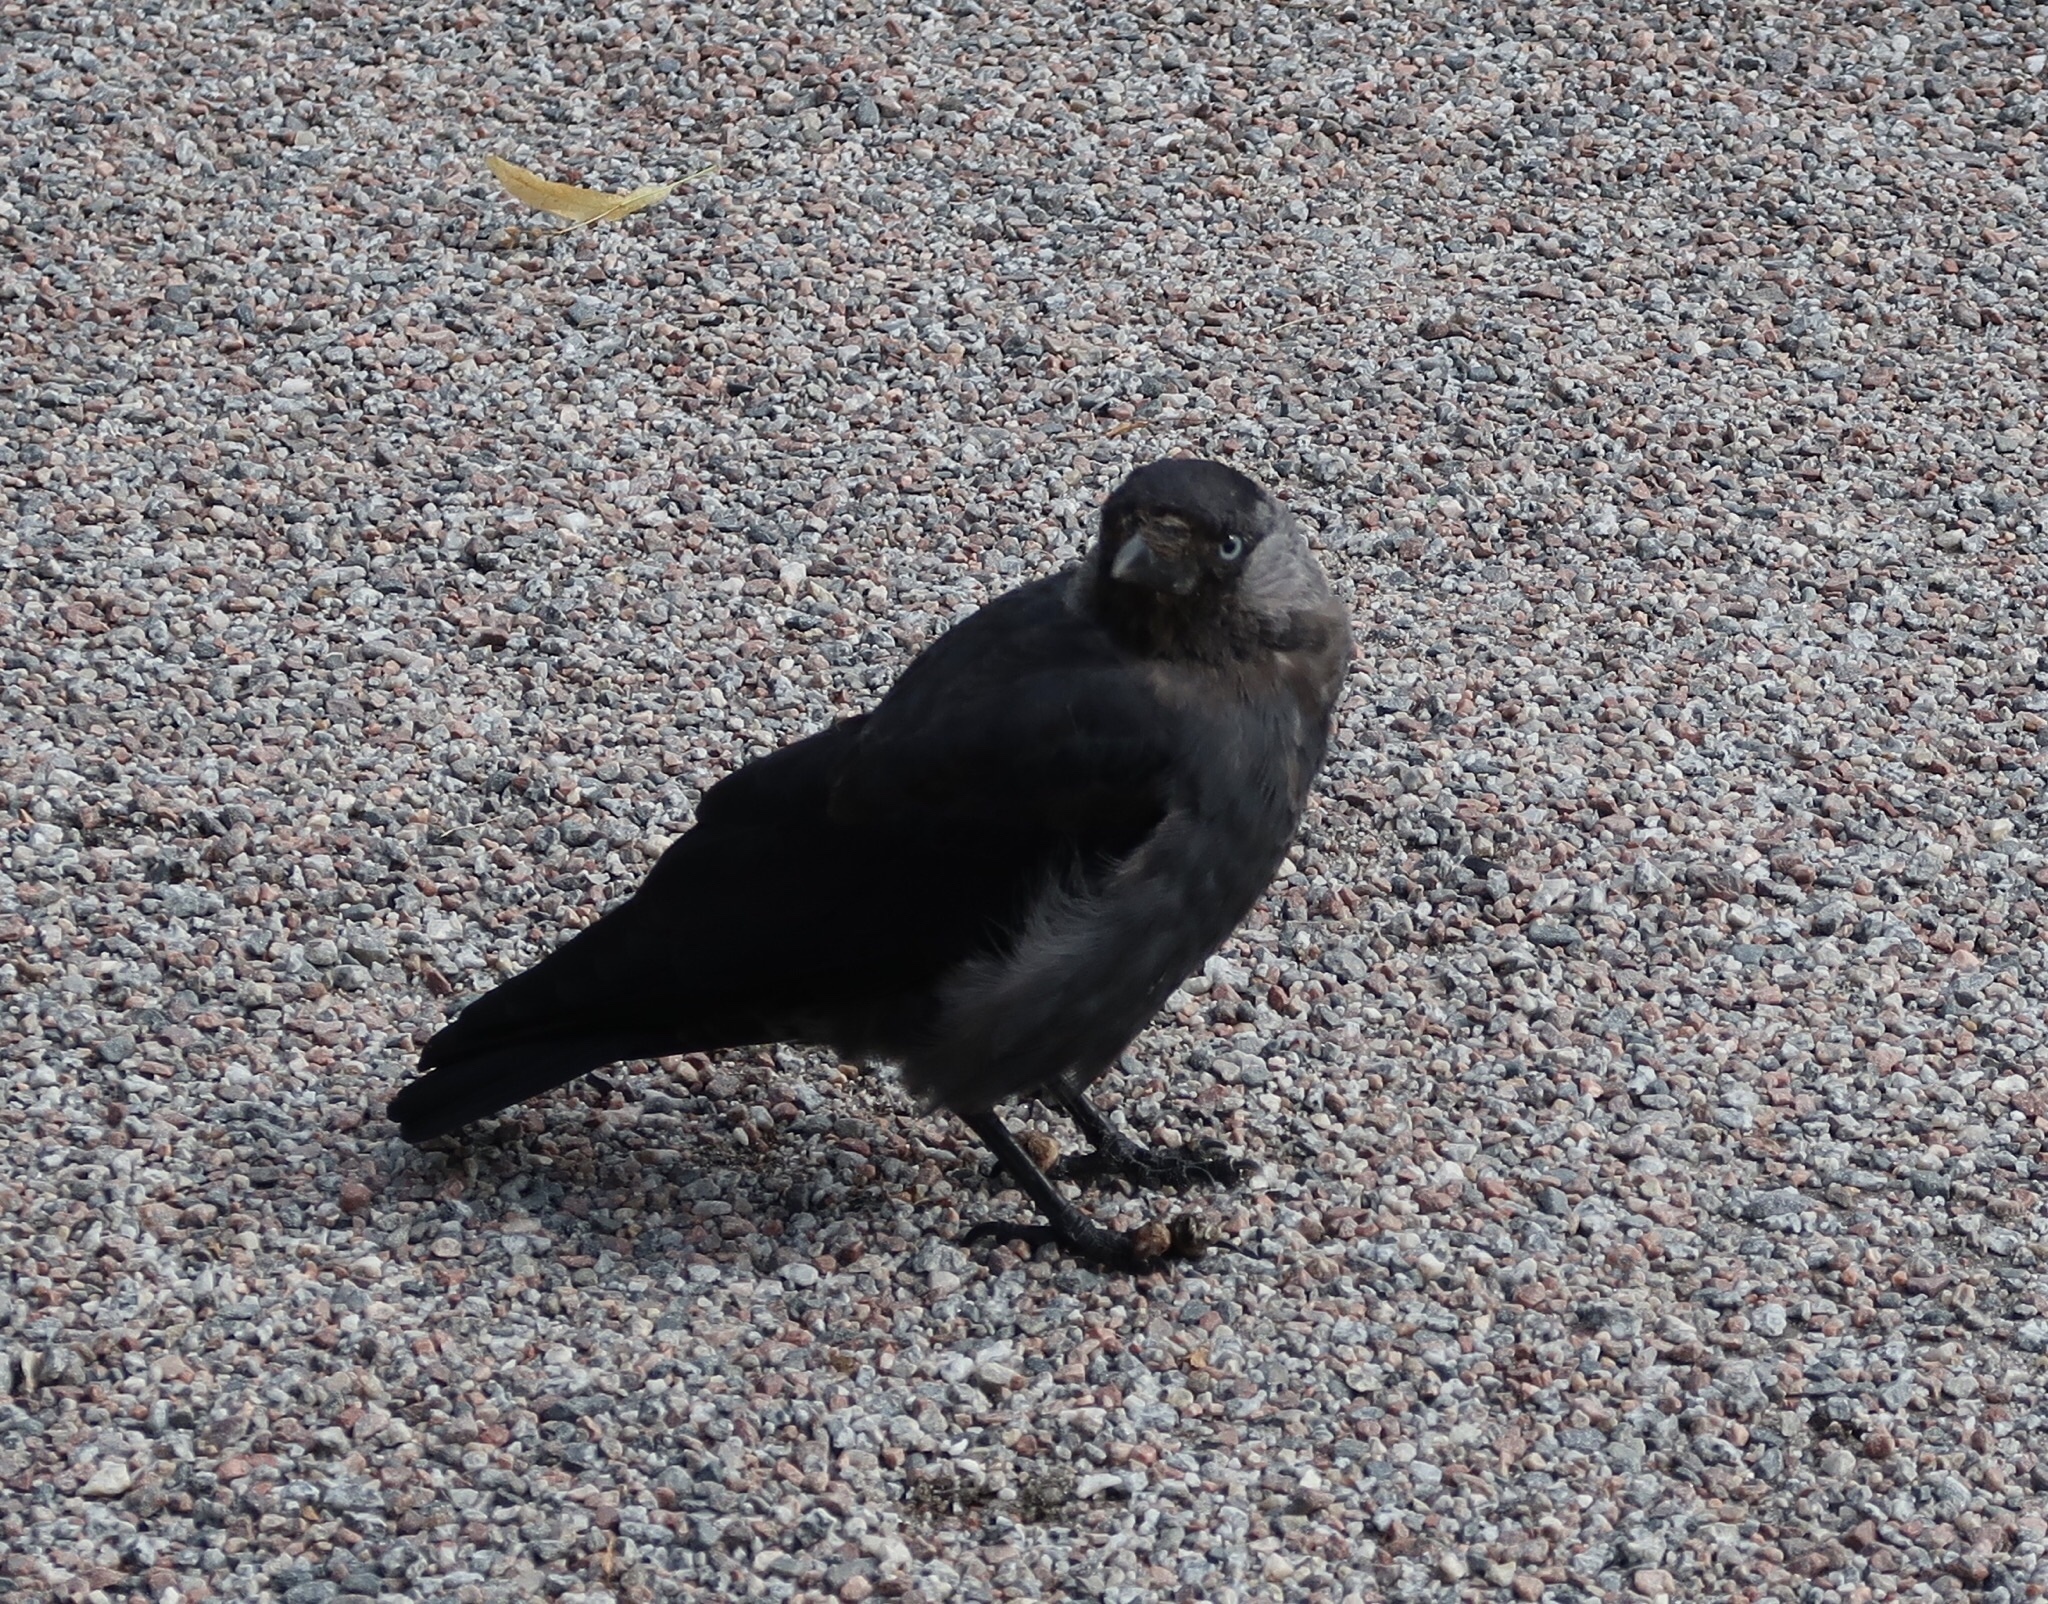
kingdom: Animalia
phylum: Chordata
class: Aves
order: Passeriformes
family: Corvidae
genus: Coloeus
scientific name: Coloeus monedula
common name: Western jackdaw
